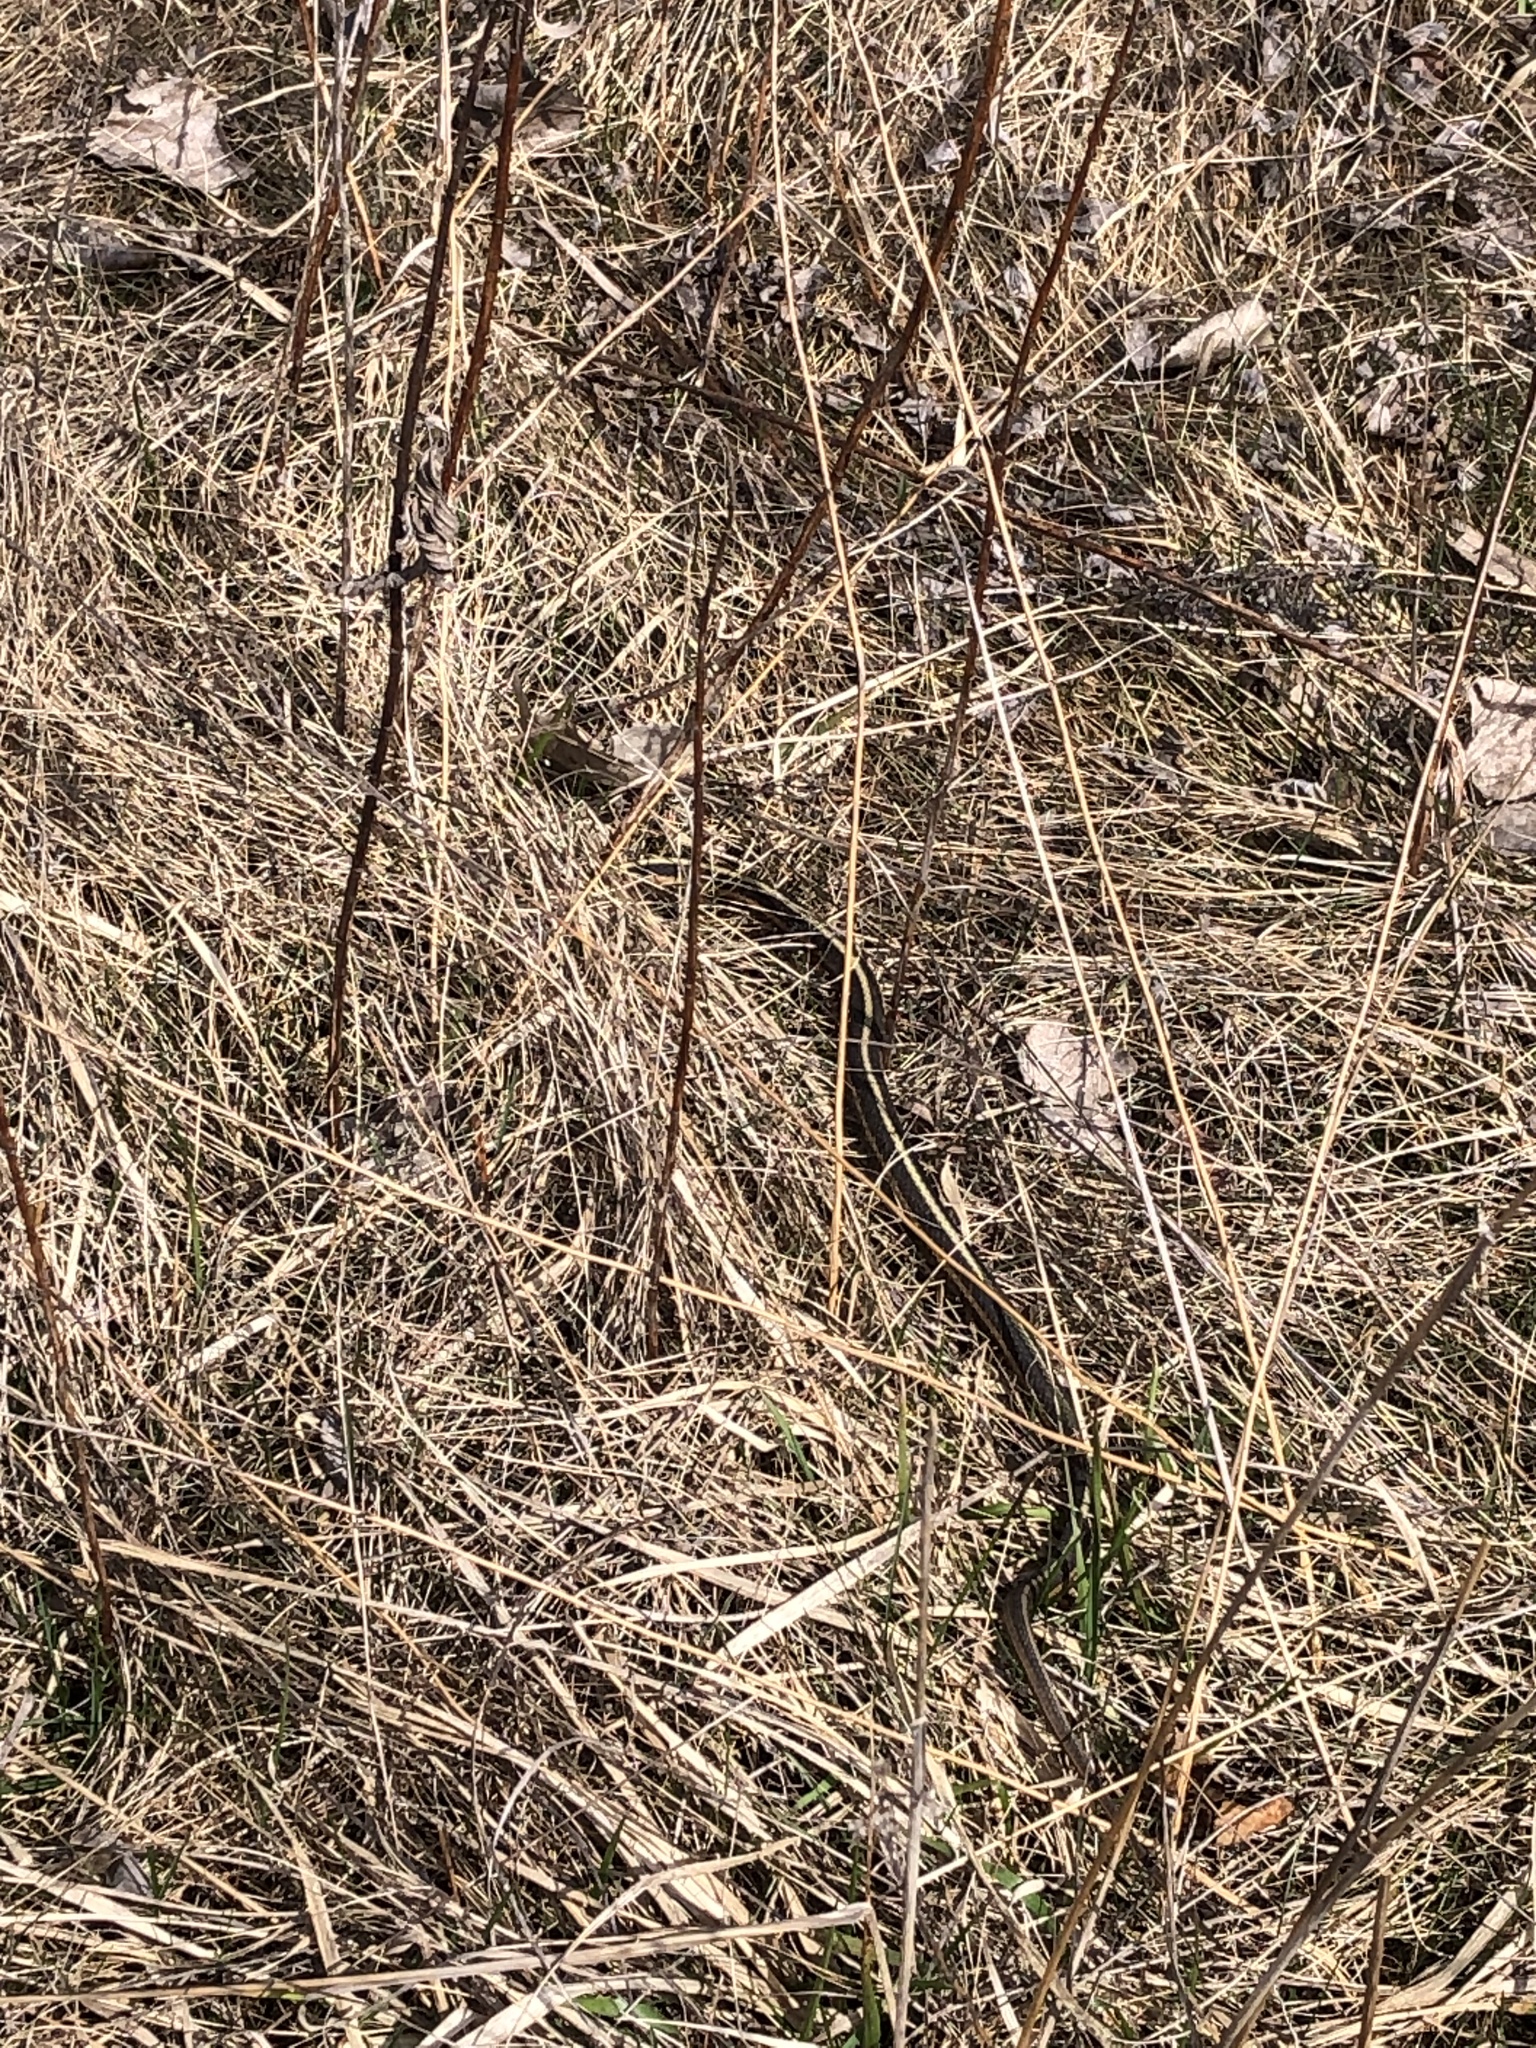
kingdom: Animalia
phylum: Chordata
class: Squamata
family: Colubridae
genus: Thamnophis
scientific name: Thamnophis sirtalis
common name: Common garter snake
